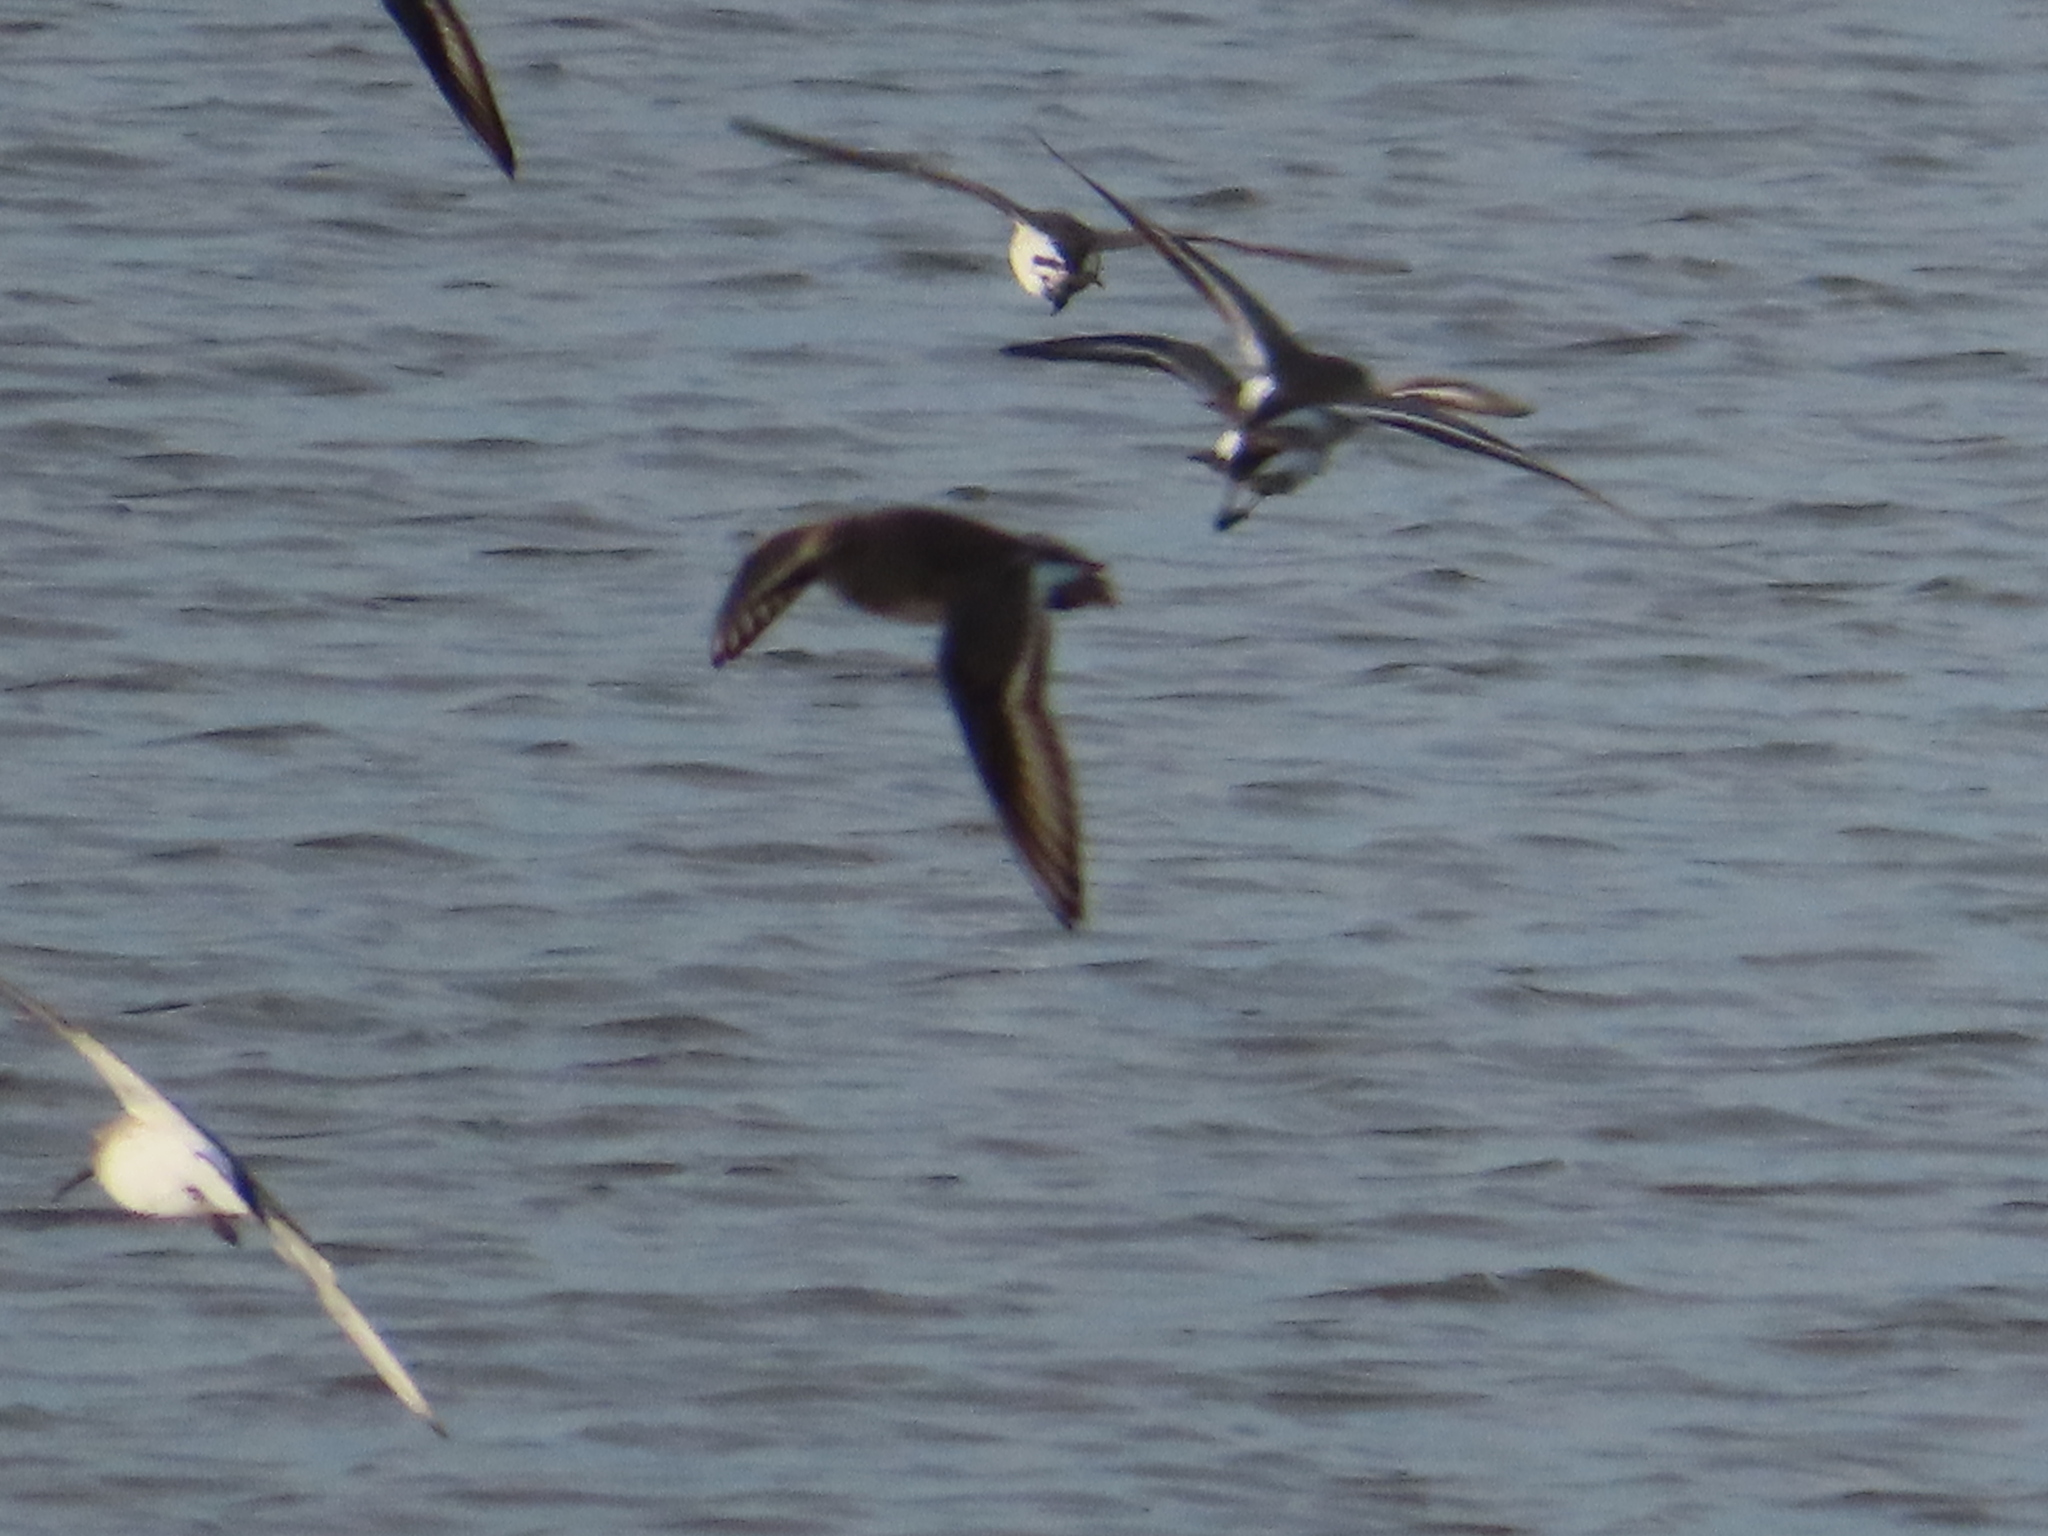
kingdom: Animalia
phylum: Chordata
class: Aves
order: Charadriiformes
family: Scolopacidae
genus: Calidris
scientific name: Calidris alpina
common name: Dunlin
